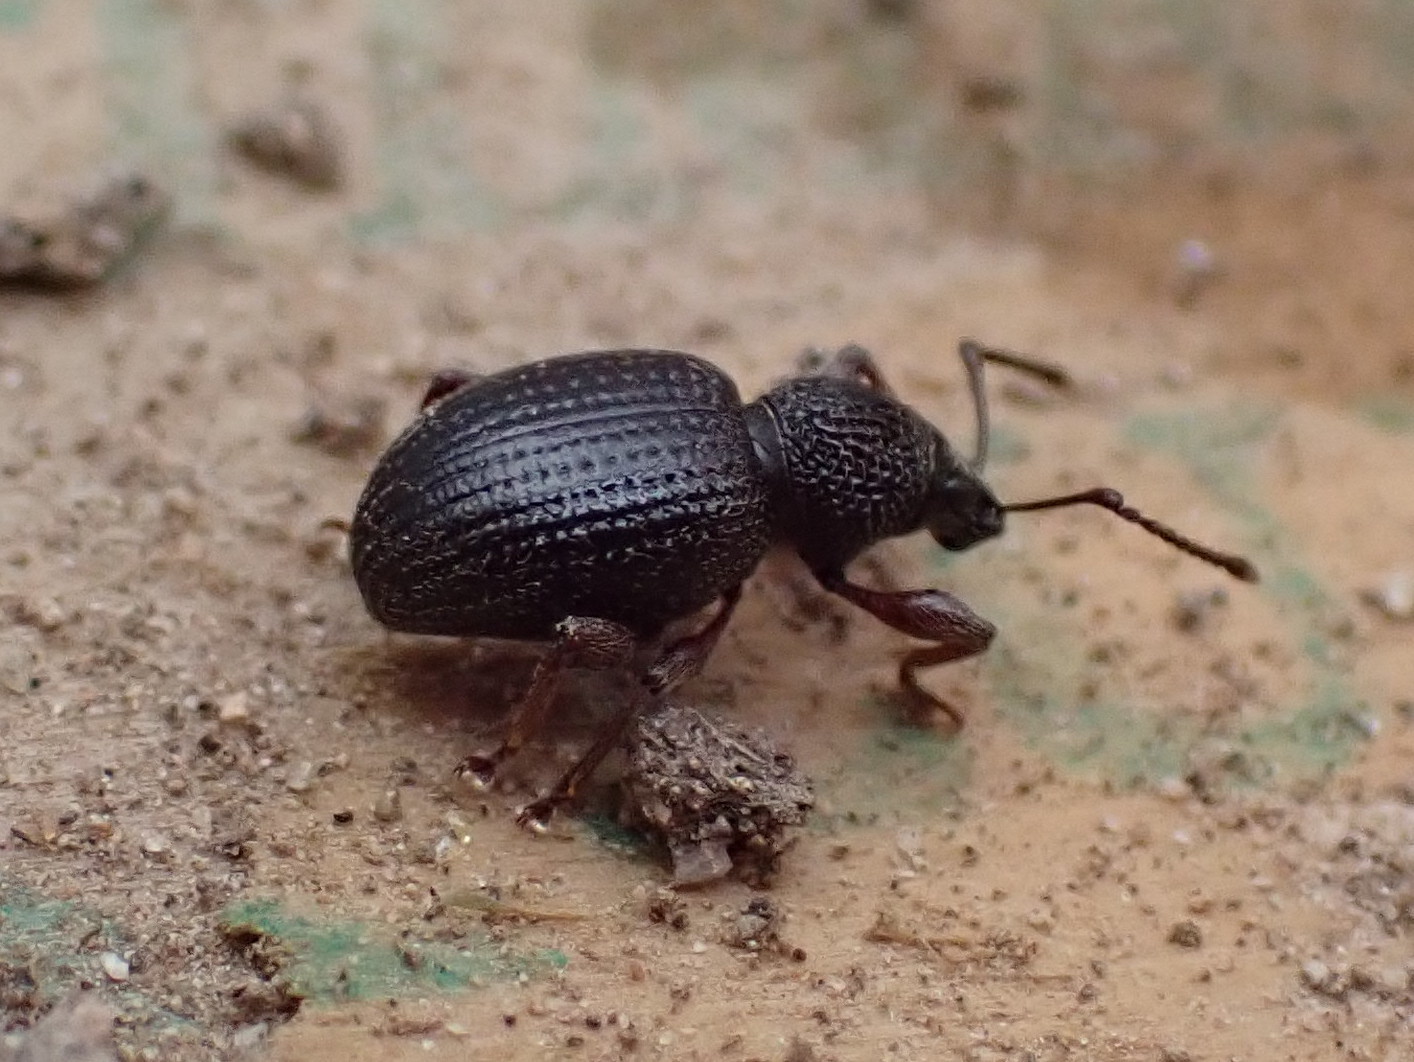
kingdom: Animalia
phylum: Arthropoda
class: Insecta
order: Coleoptera
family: Curculionidae
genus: Otiorhynchus
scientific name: Otiorhynchus ovatus
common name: Strawberry root weevil
